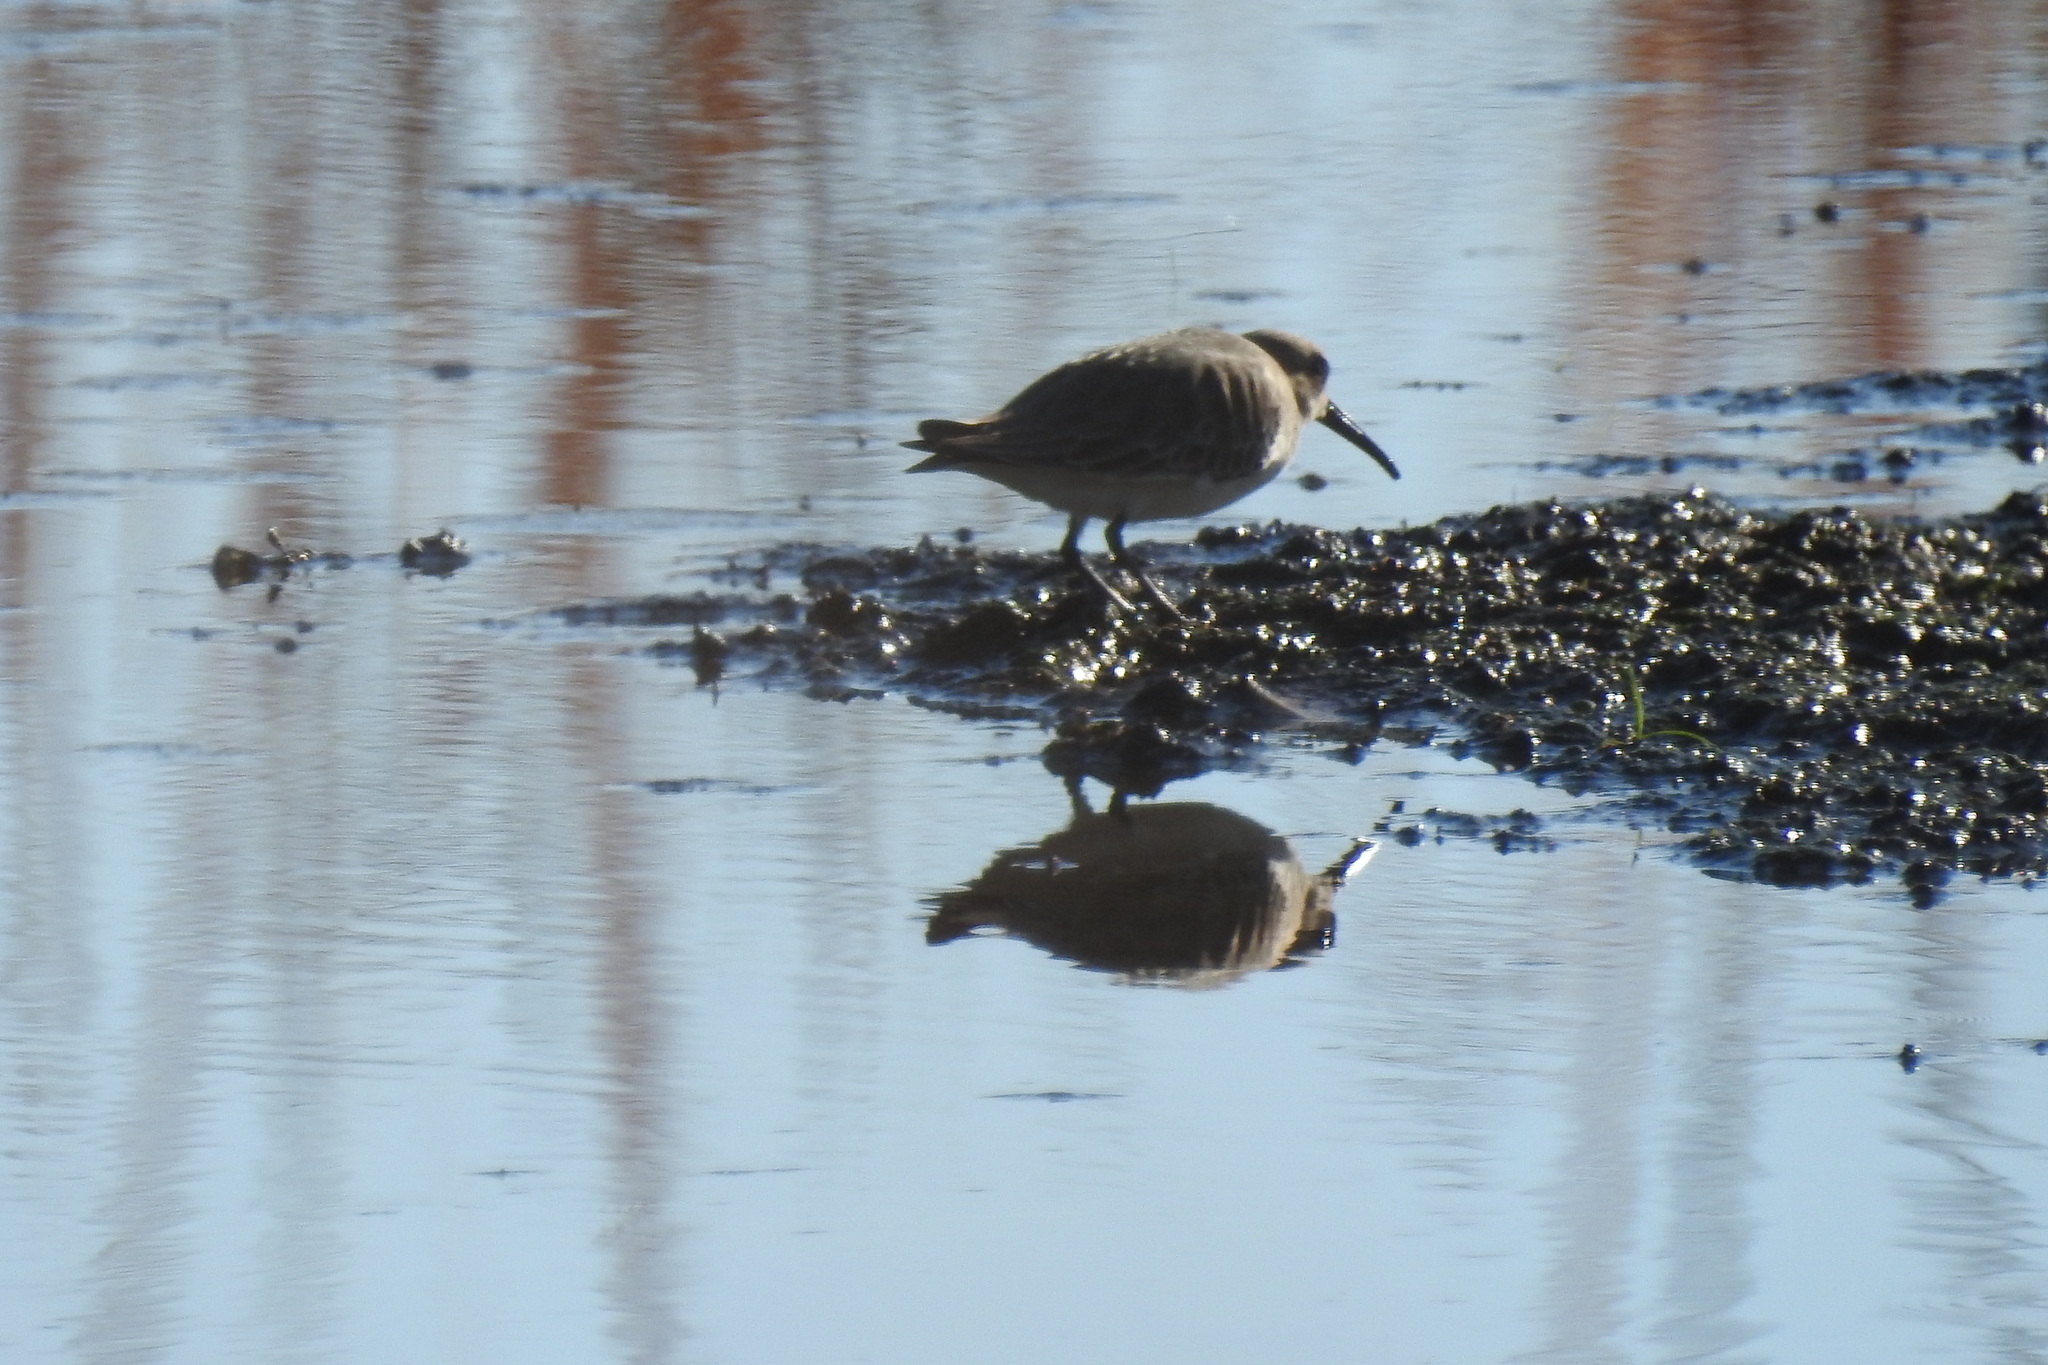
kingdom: Animalia
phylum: Chordata
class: Aves
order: Charadriiformes
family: Scolopacidae
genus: Calidris
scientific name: Calidris alpina
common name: Dunlin
